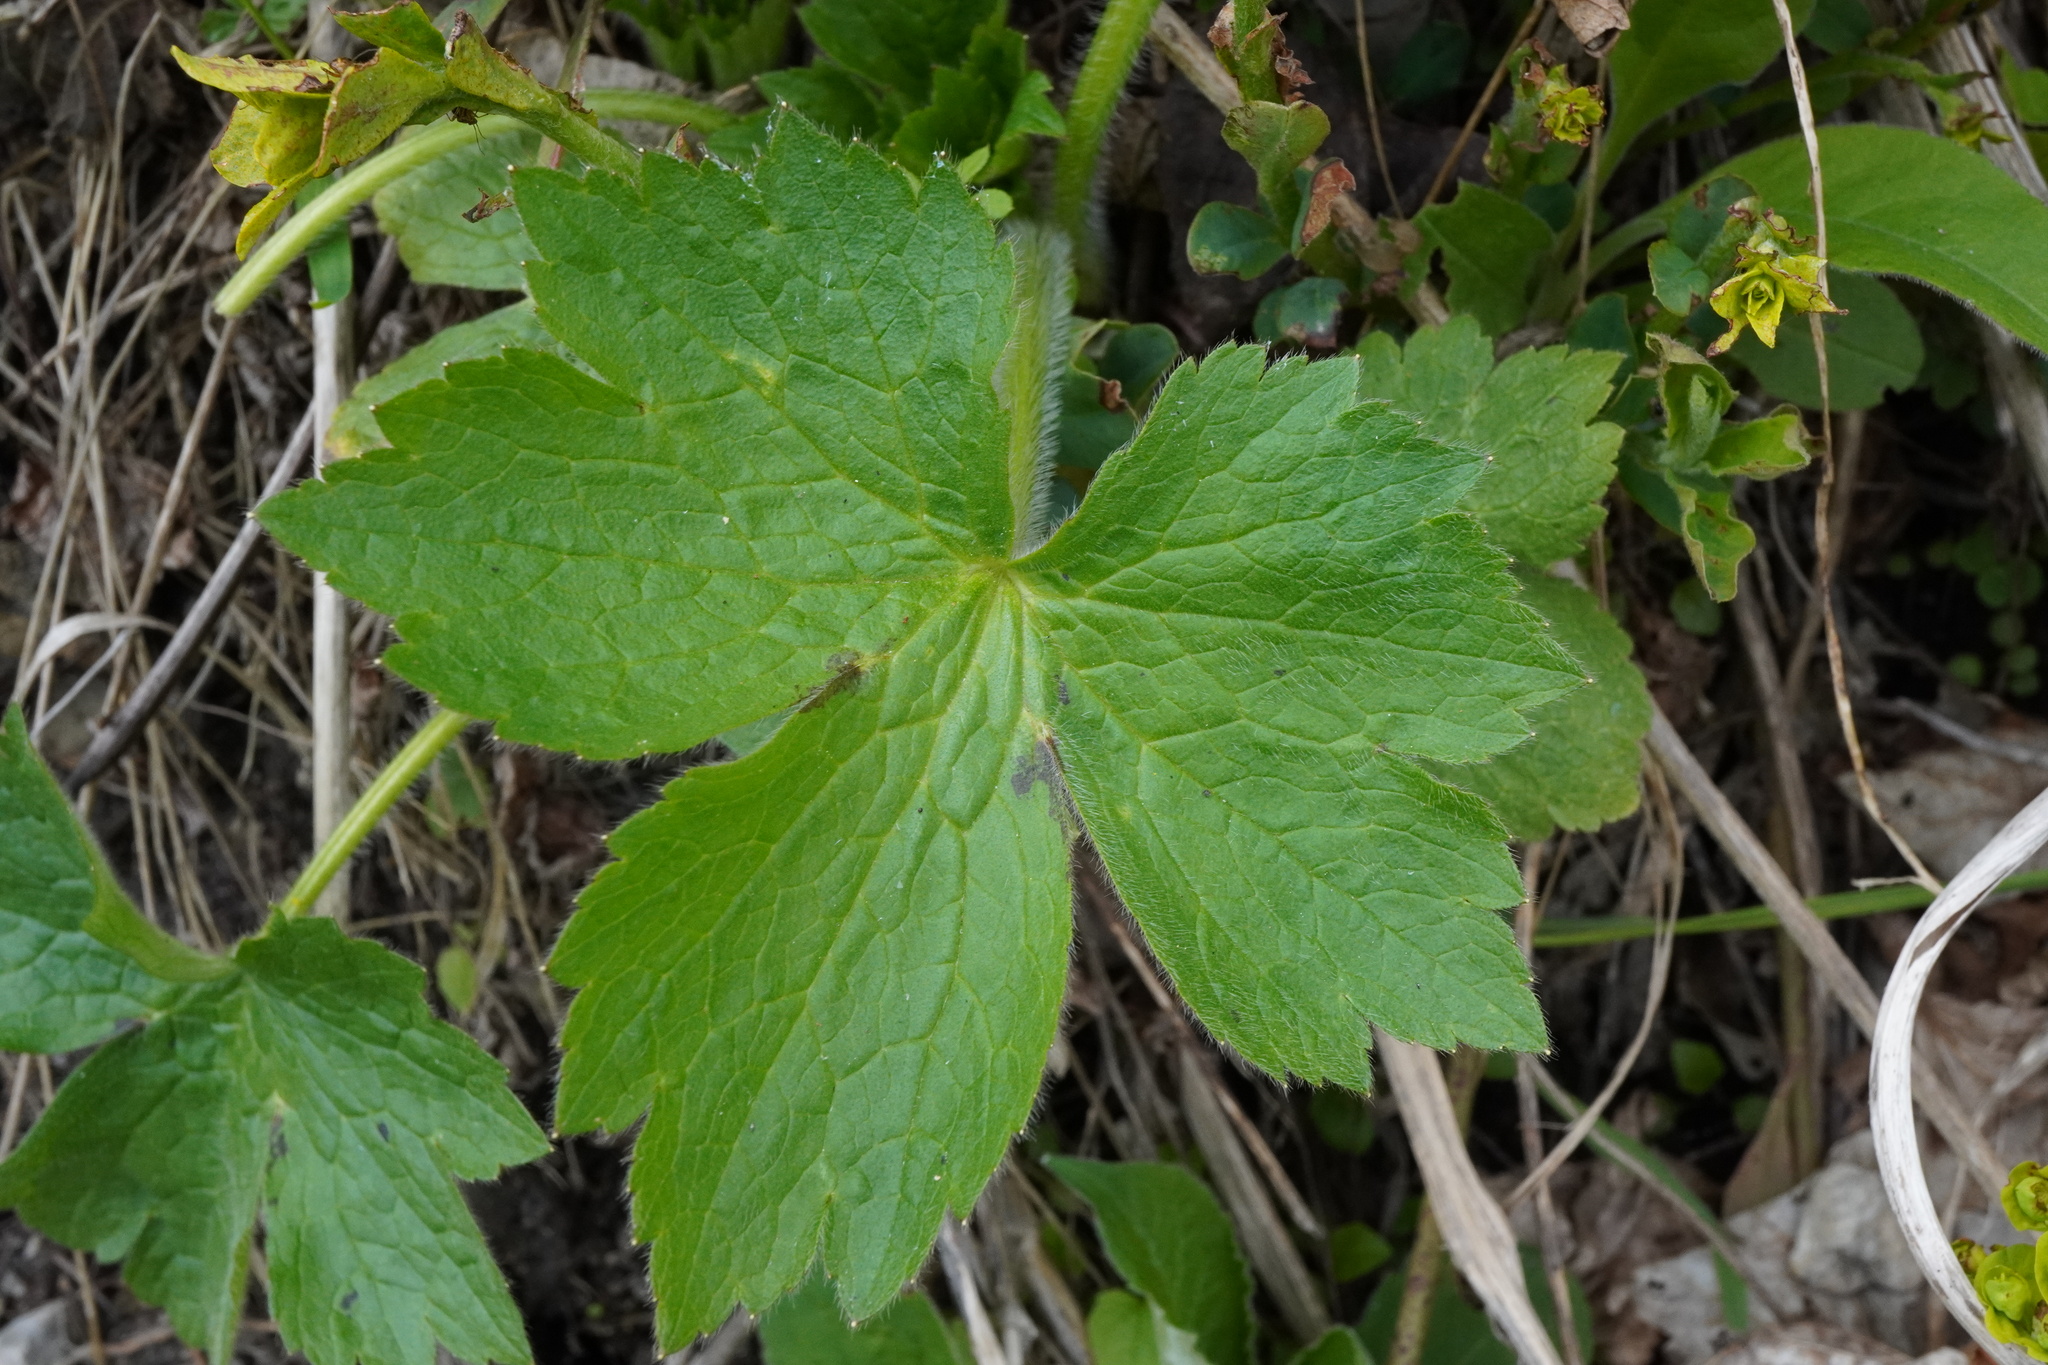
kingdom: Plantae
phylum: Tracheophyta
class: Magnoliopsida
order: Ranunculales
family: Ranunculaceae
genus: Ranunculus
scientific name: Ranunculus lanuginosus
